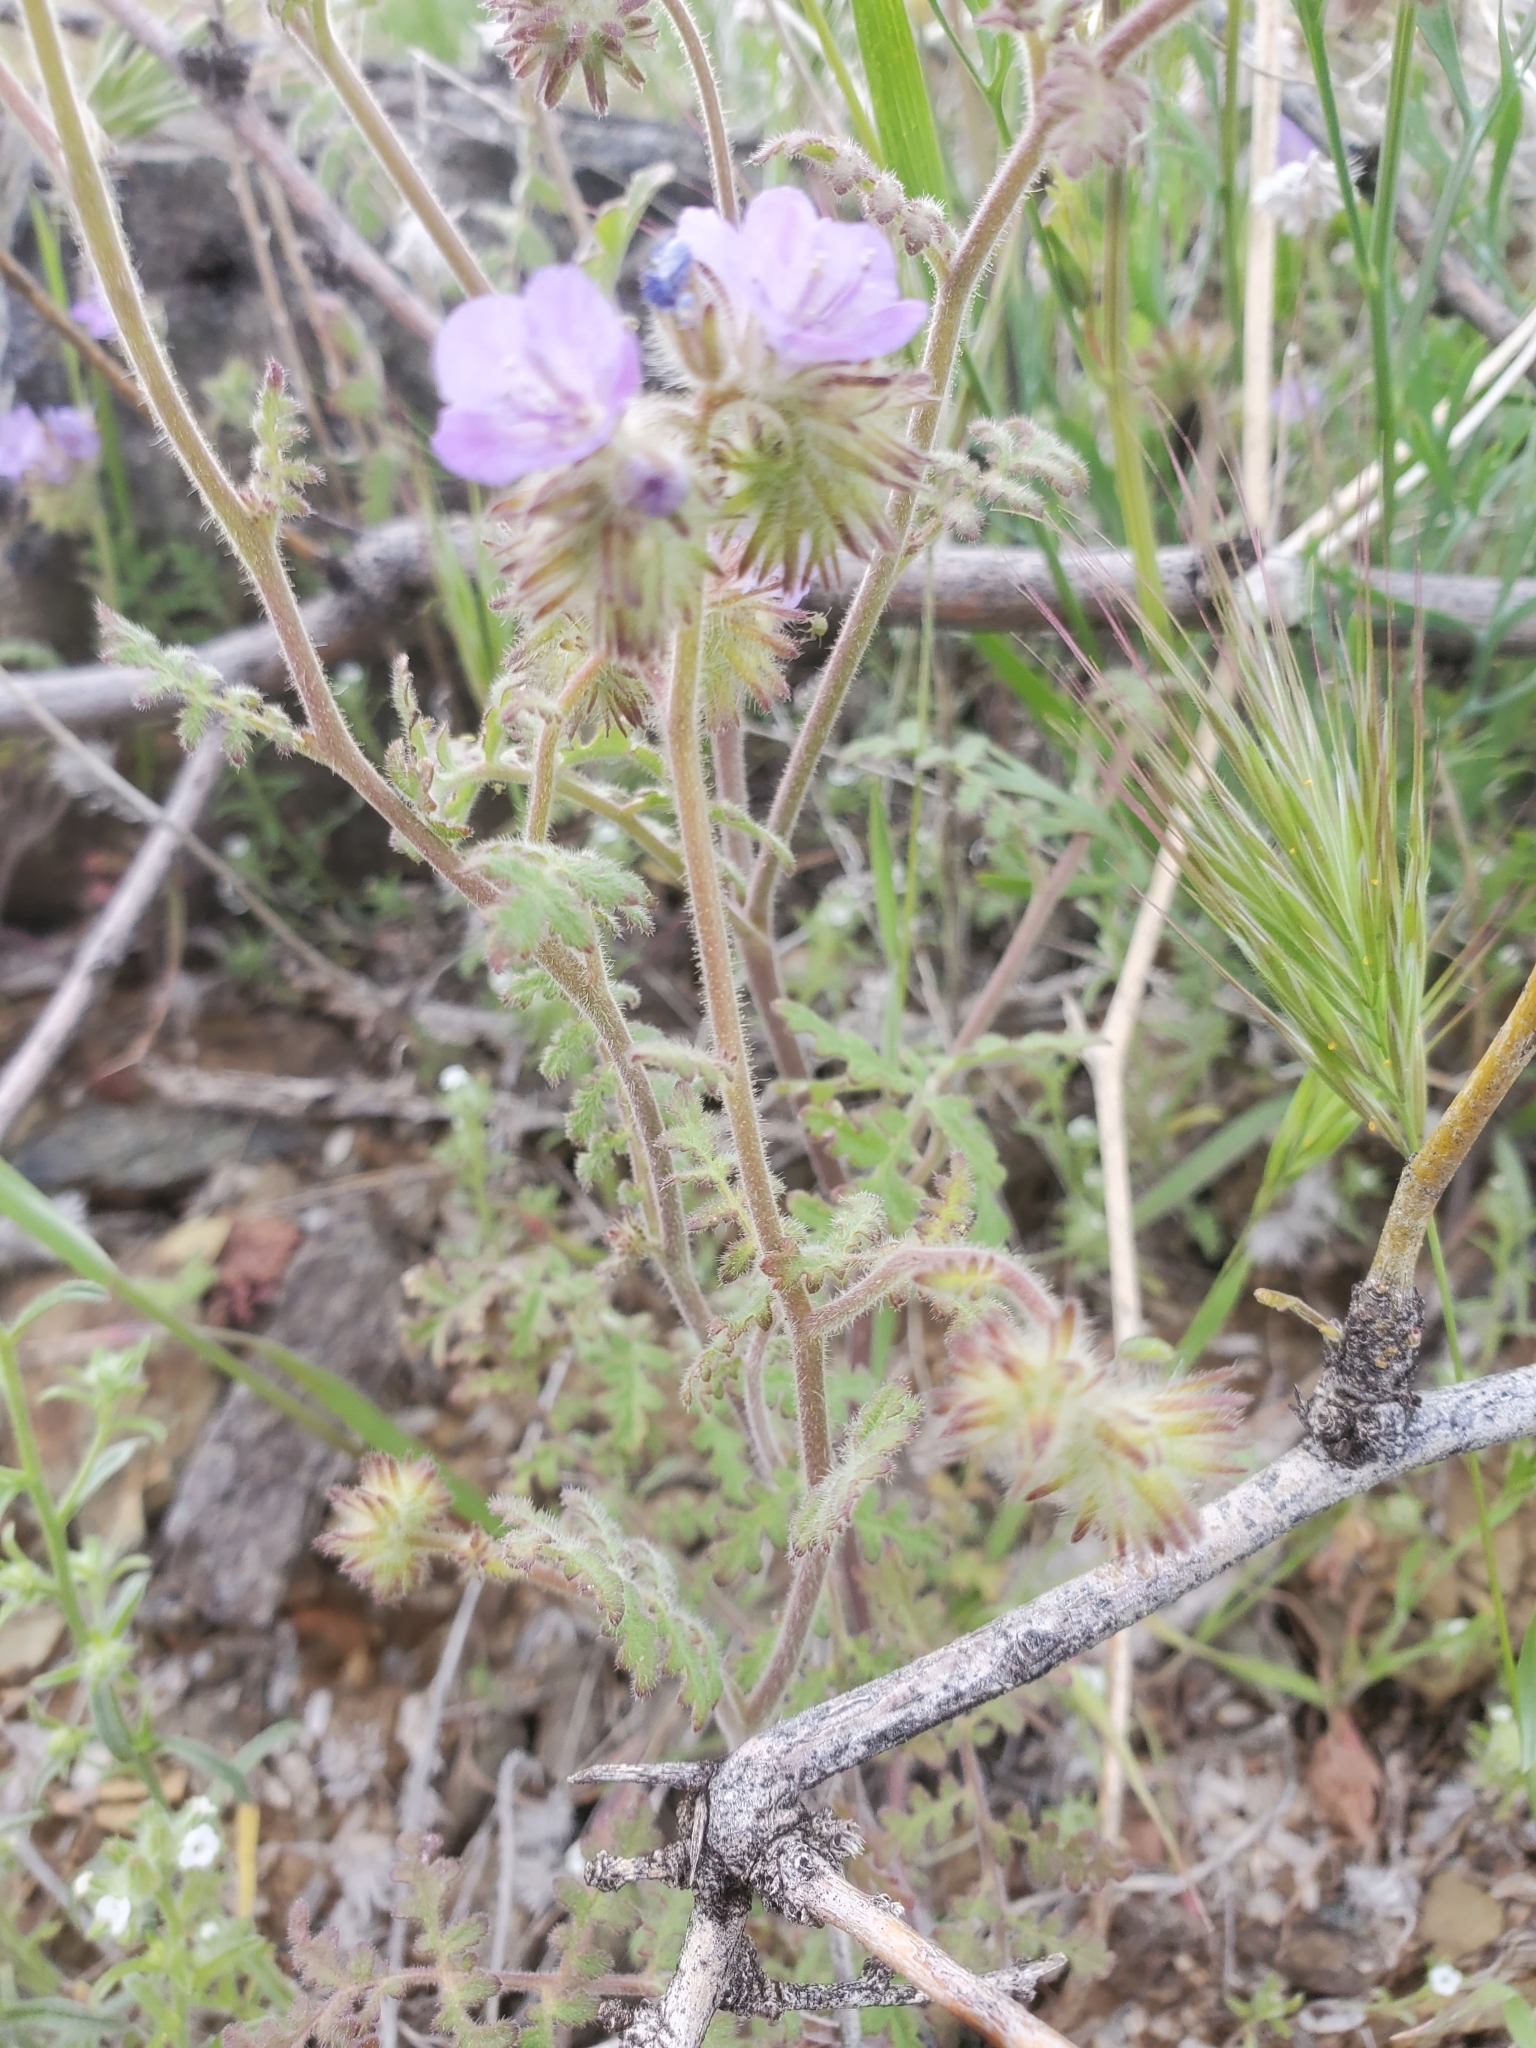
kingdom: Plantae
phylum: Tracheophyta
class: Magnoliopsida
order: Boraginales
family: Hydrophyllaceae
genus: Phacelia
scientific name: Phacelia gentryi
